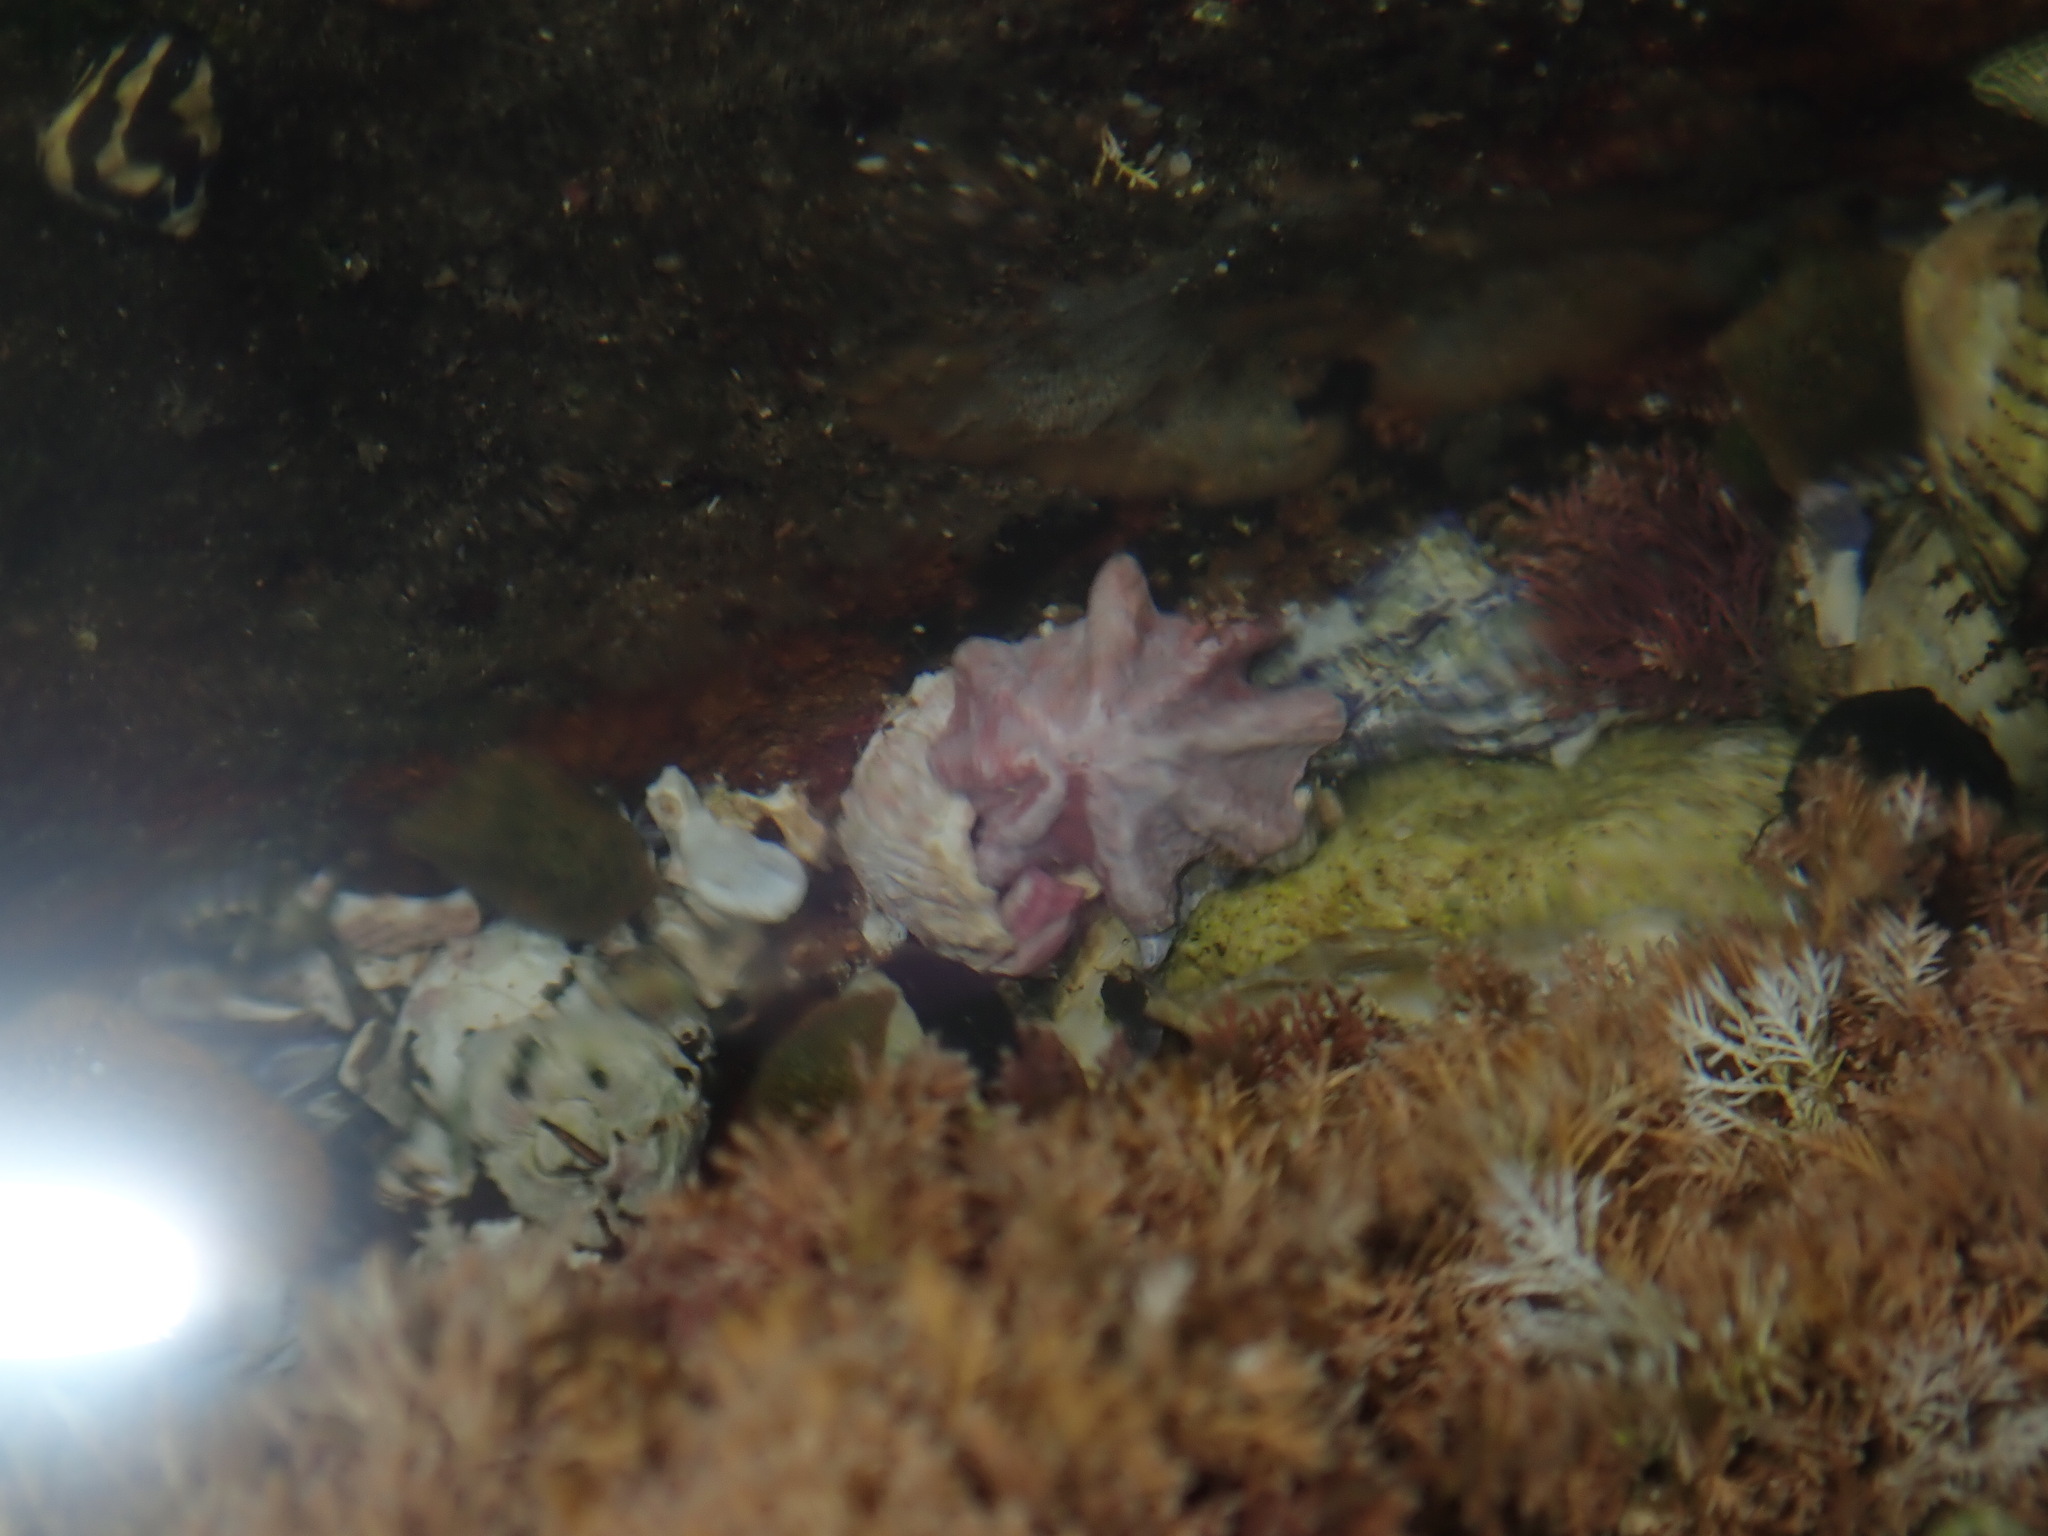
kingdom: Animalia
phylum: Mollusca
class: Gastropoda
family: Patellidae
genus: Scutellastra
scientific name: Scutellastra chapmani
